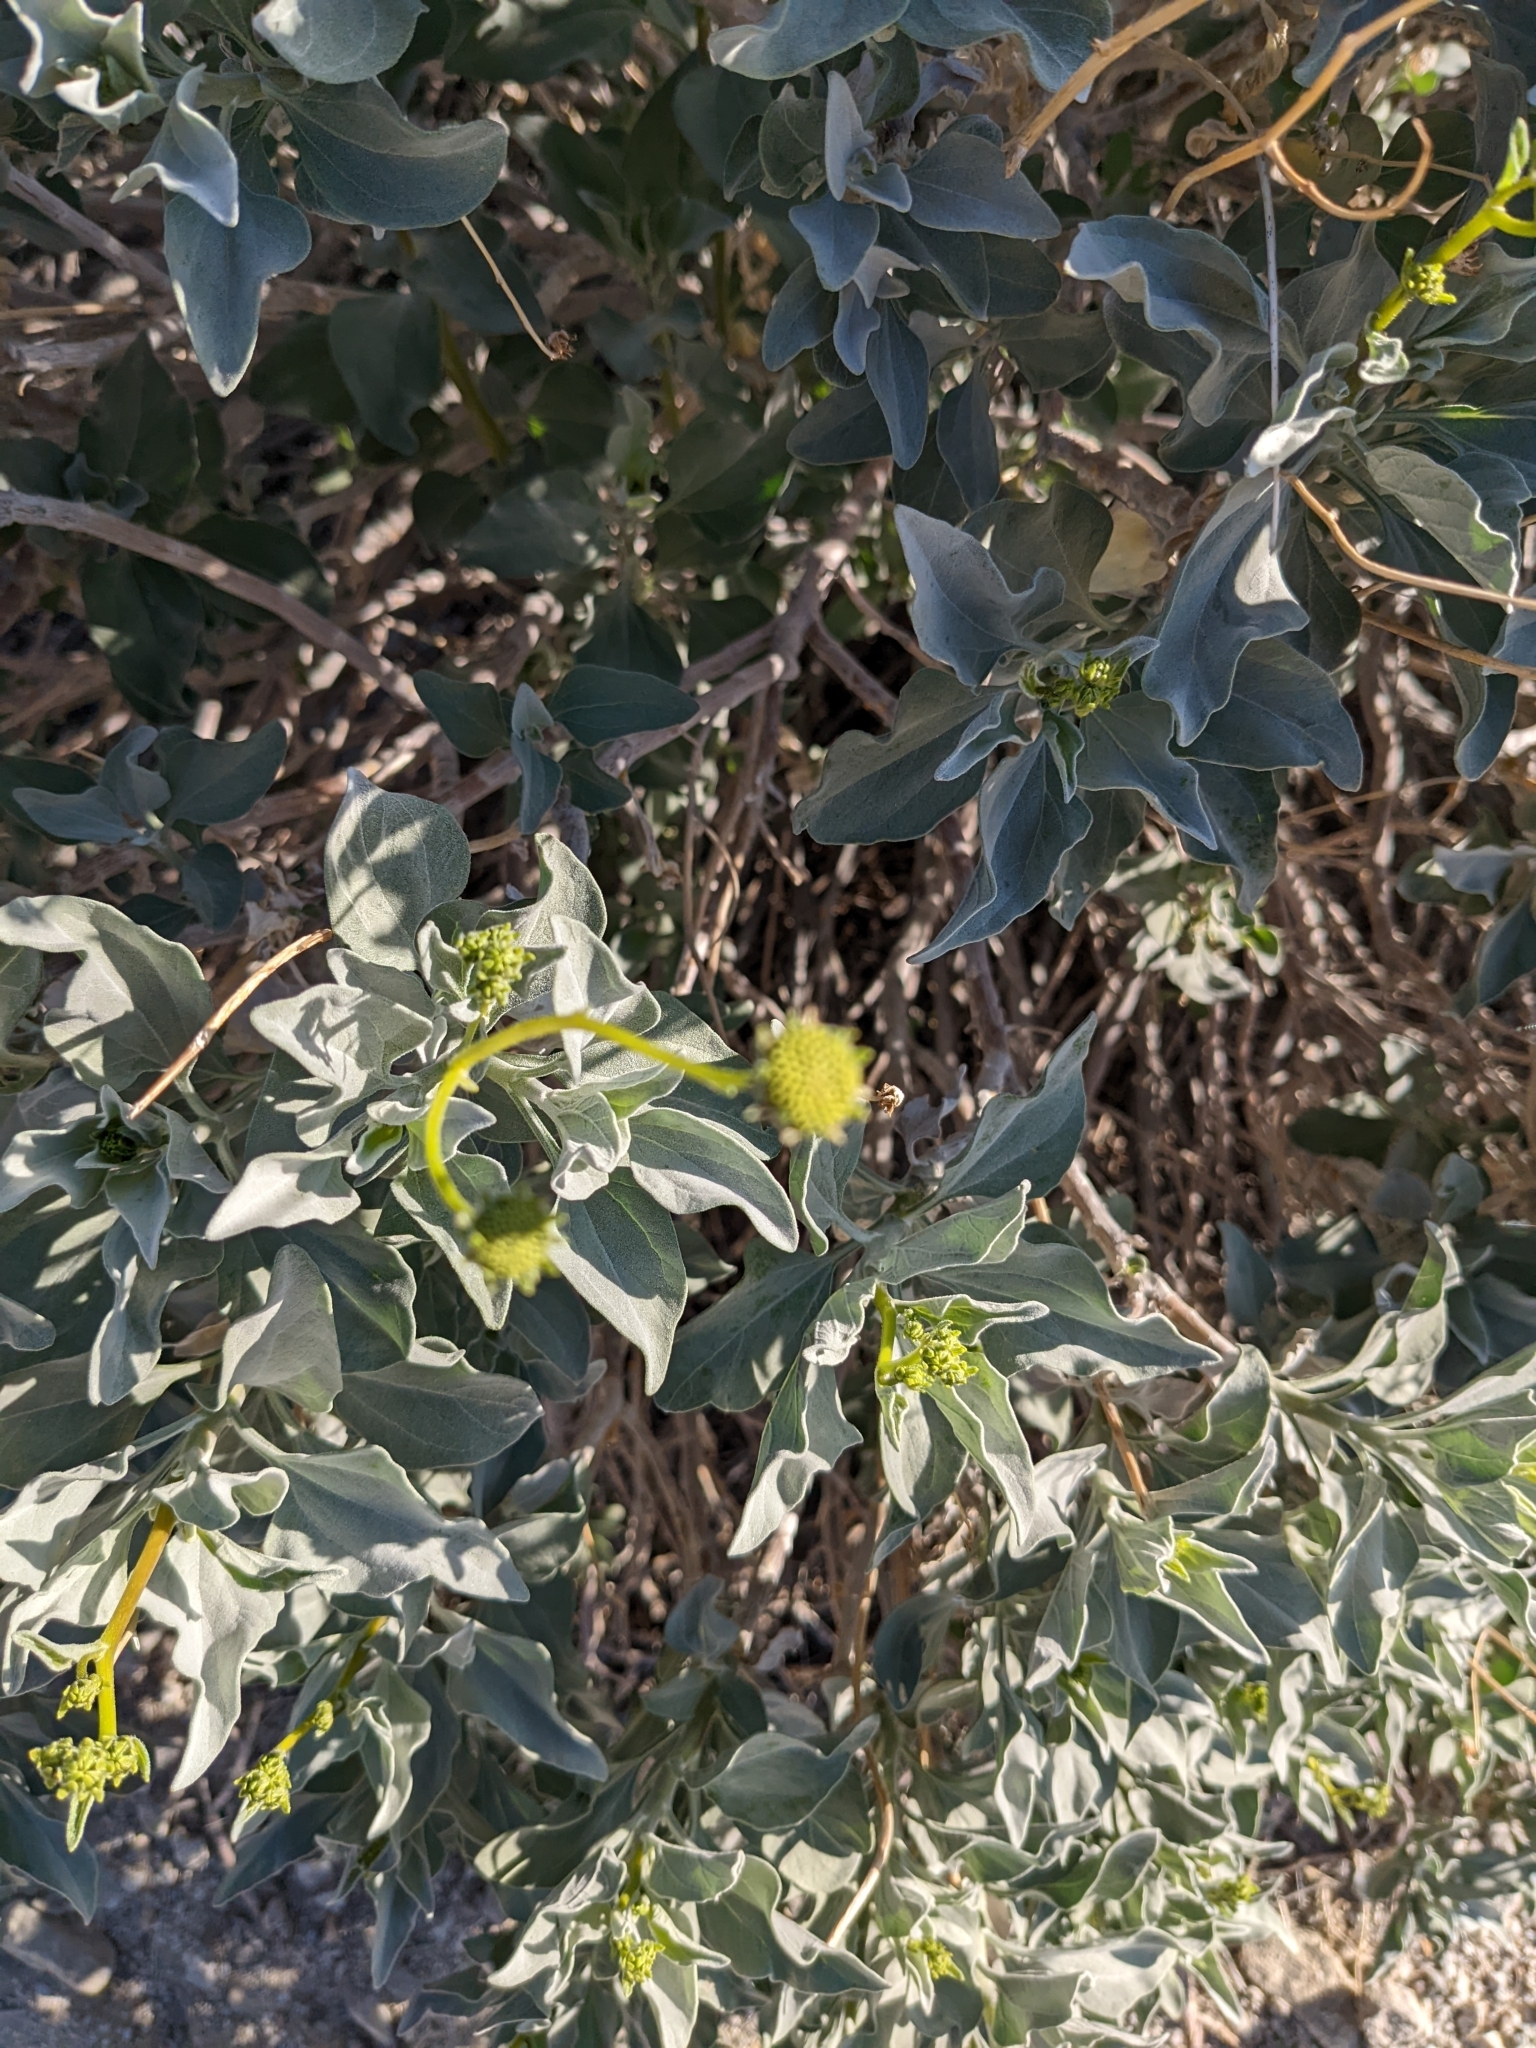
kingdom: Plantae
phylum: Tracheophyta
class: Magnoliopsida
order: Asterales
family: Asteraceae
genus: Encelia
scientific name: Encelia farinosa
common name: Brittlebush
